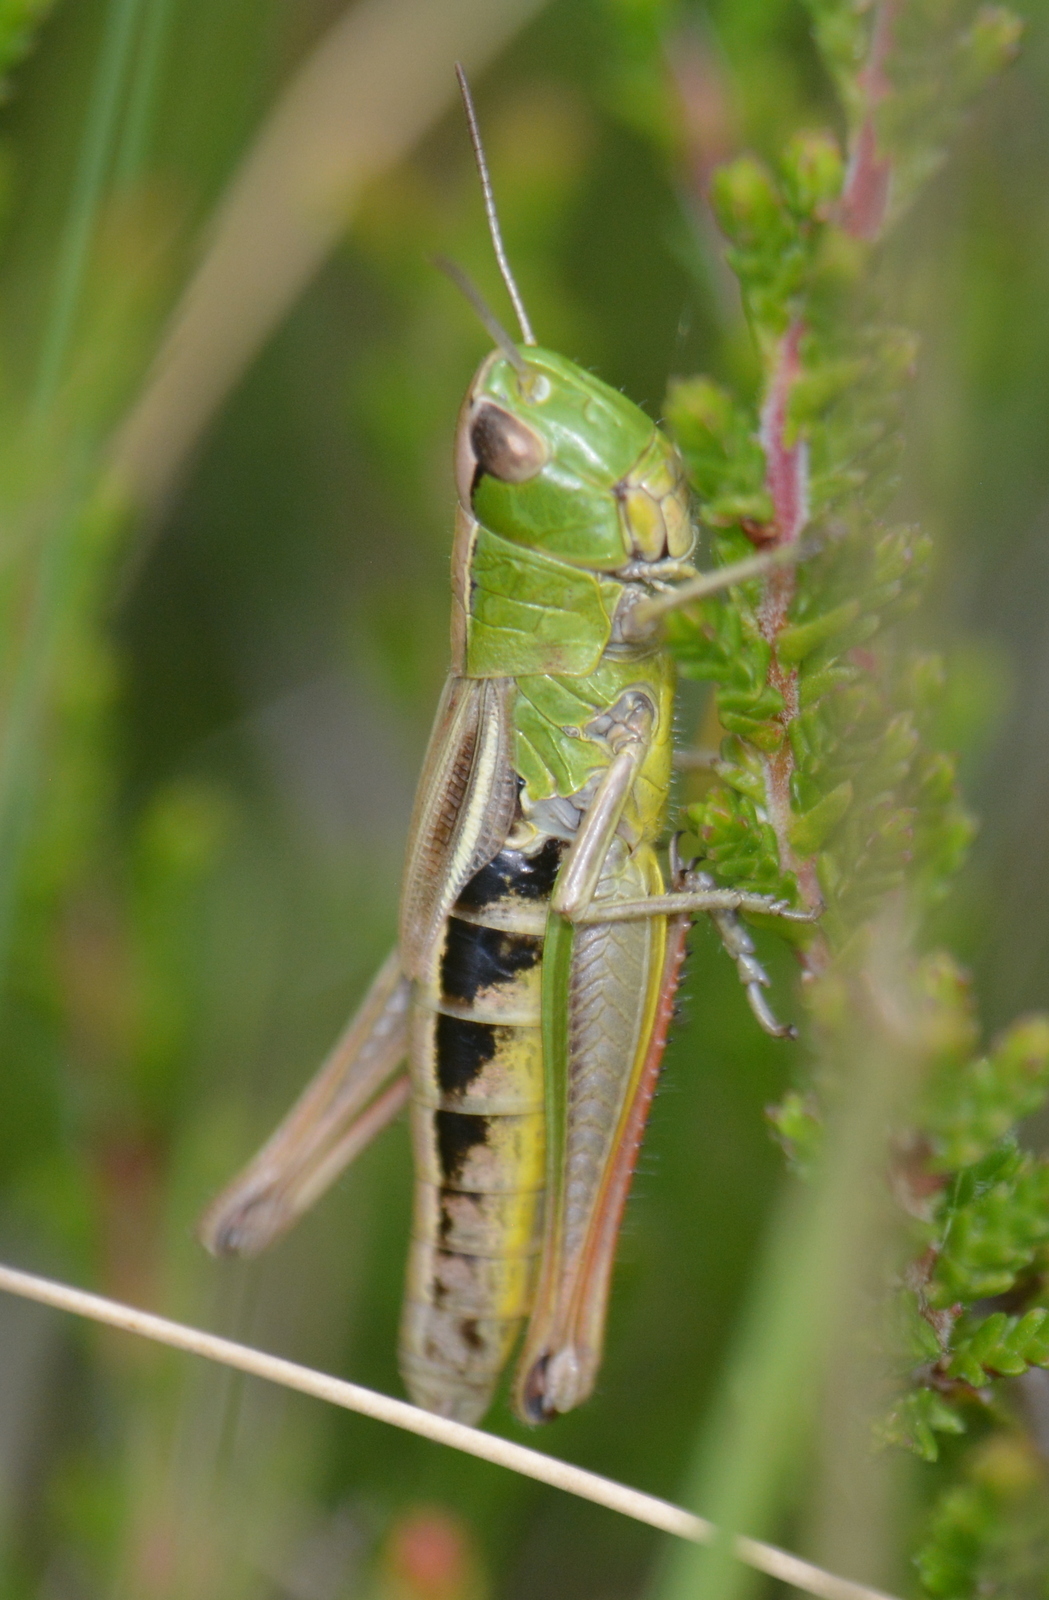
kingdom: Animalia
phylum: Arthropoda
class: Insecta
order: Orthoptera
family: Acrididae
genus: Pseudochorthippus
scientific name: Pseudochorthippus parallelus
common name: Meadow grasshopper
